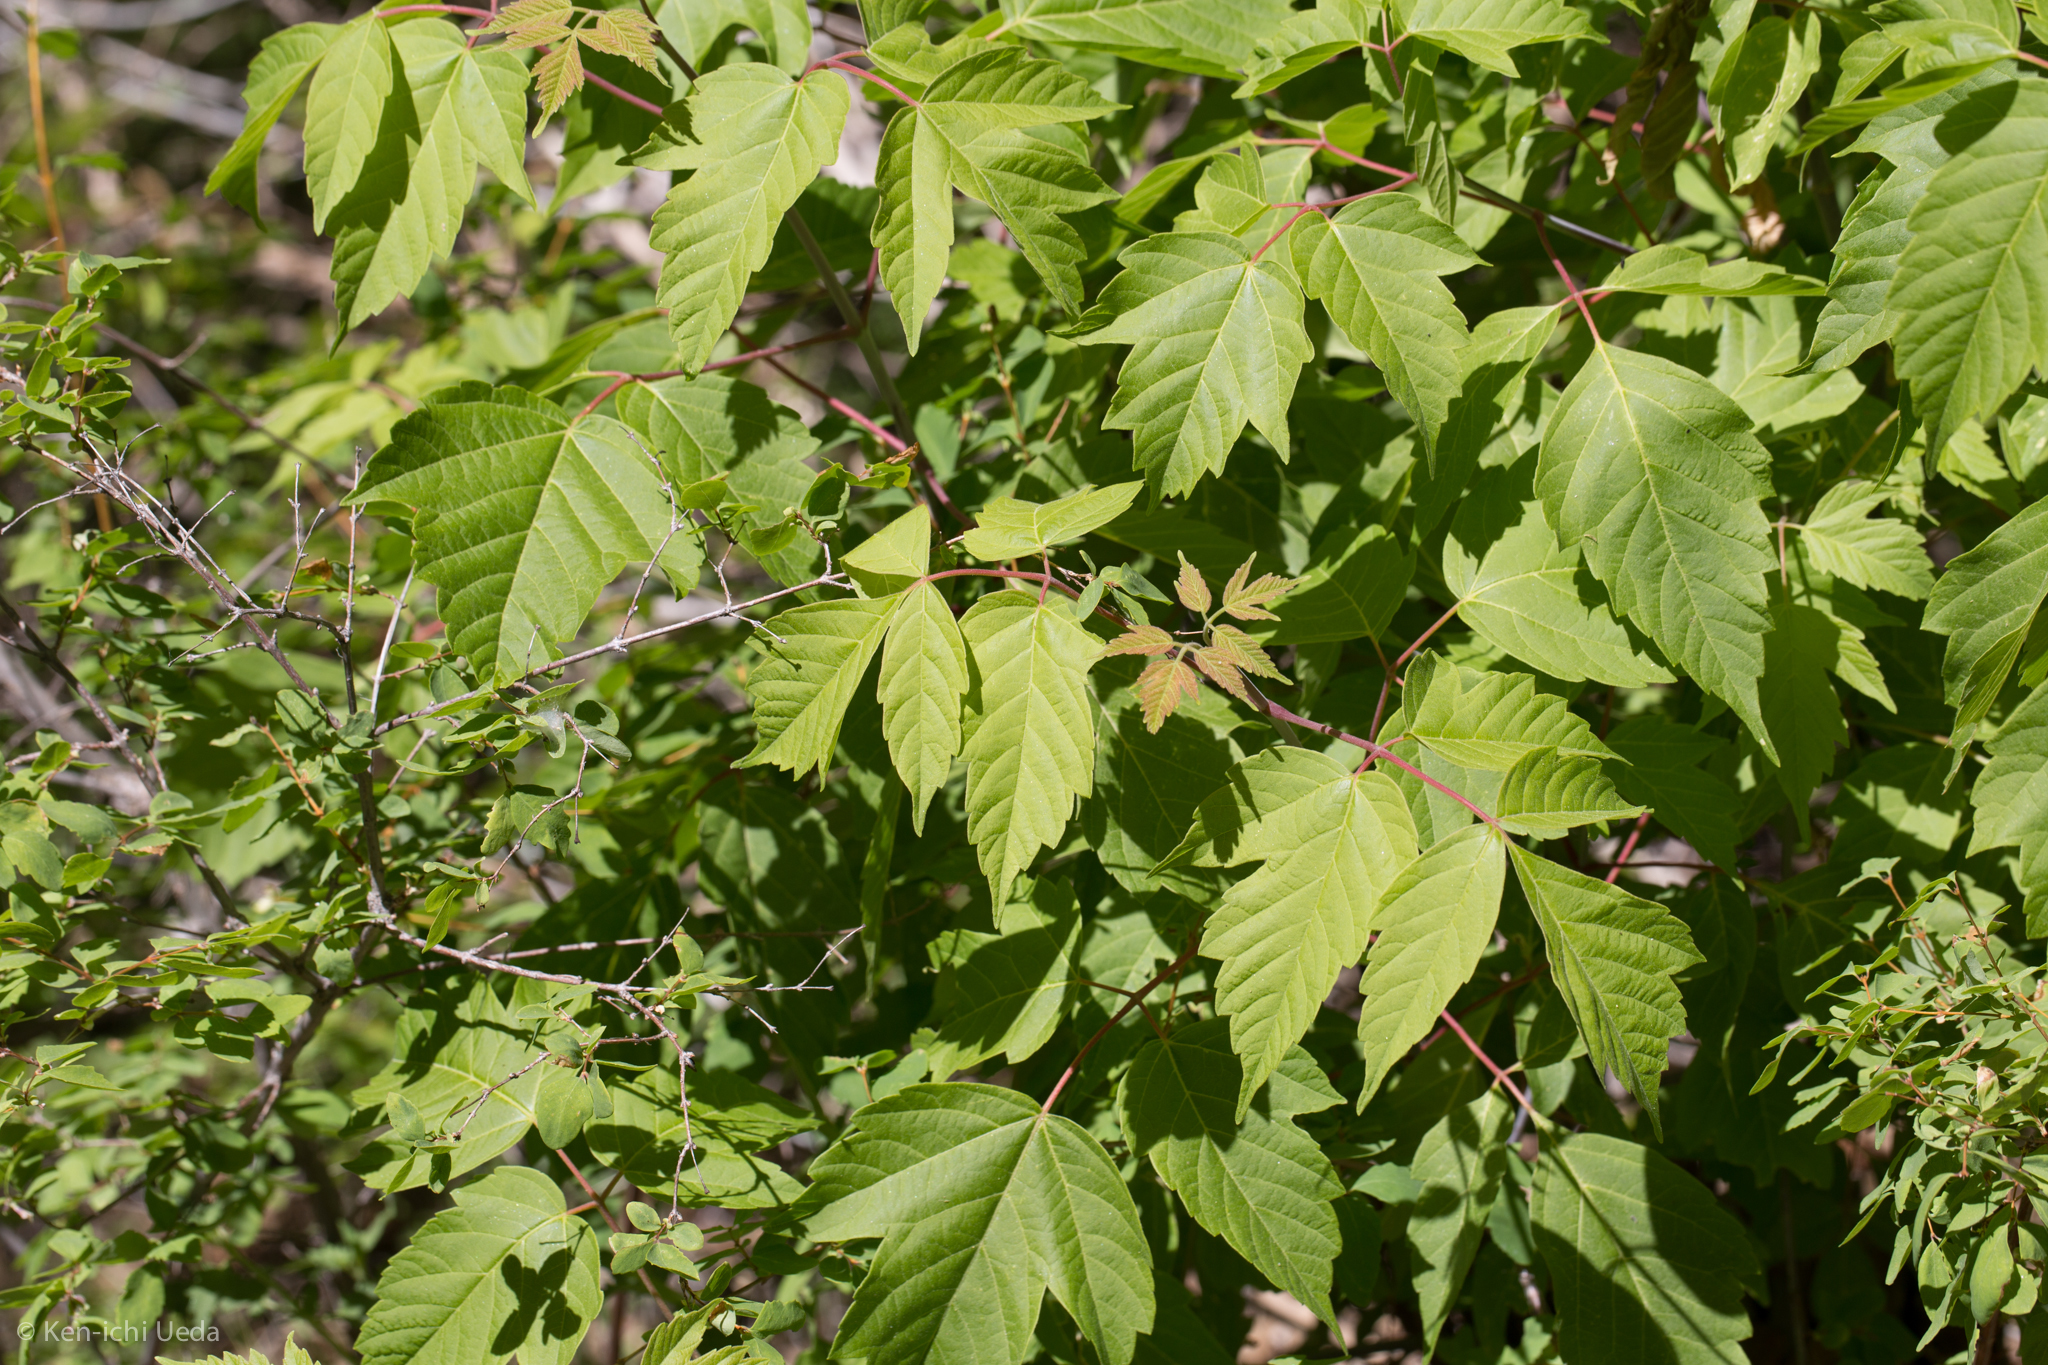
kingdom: Plantae
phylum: Tracheophyta
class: Magnoliopsida
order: Sapindales
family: Sapindaceae
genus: Acer
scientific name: Acer negundo
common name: Ashleaf maple
